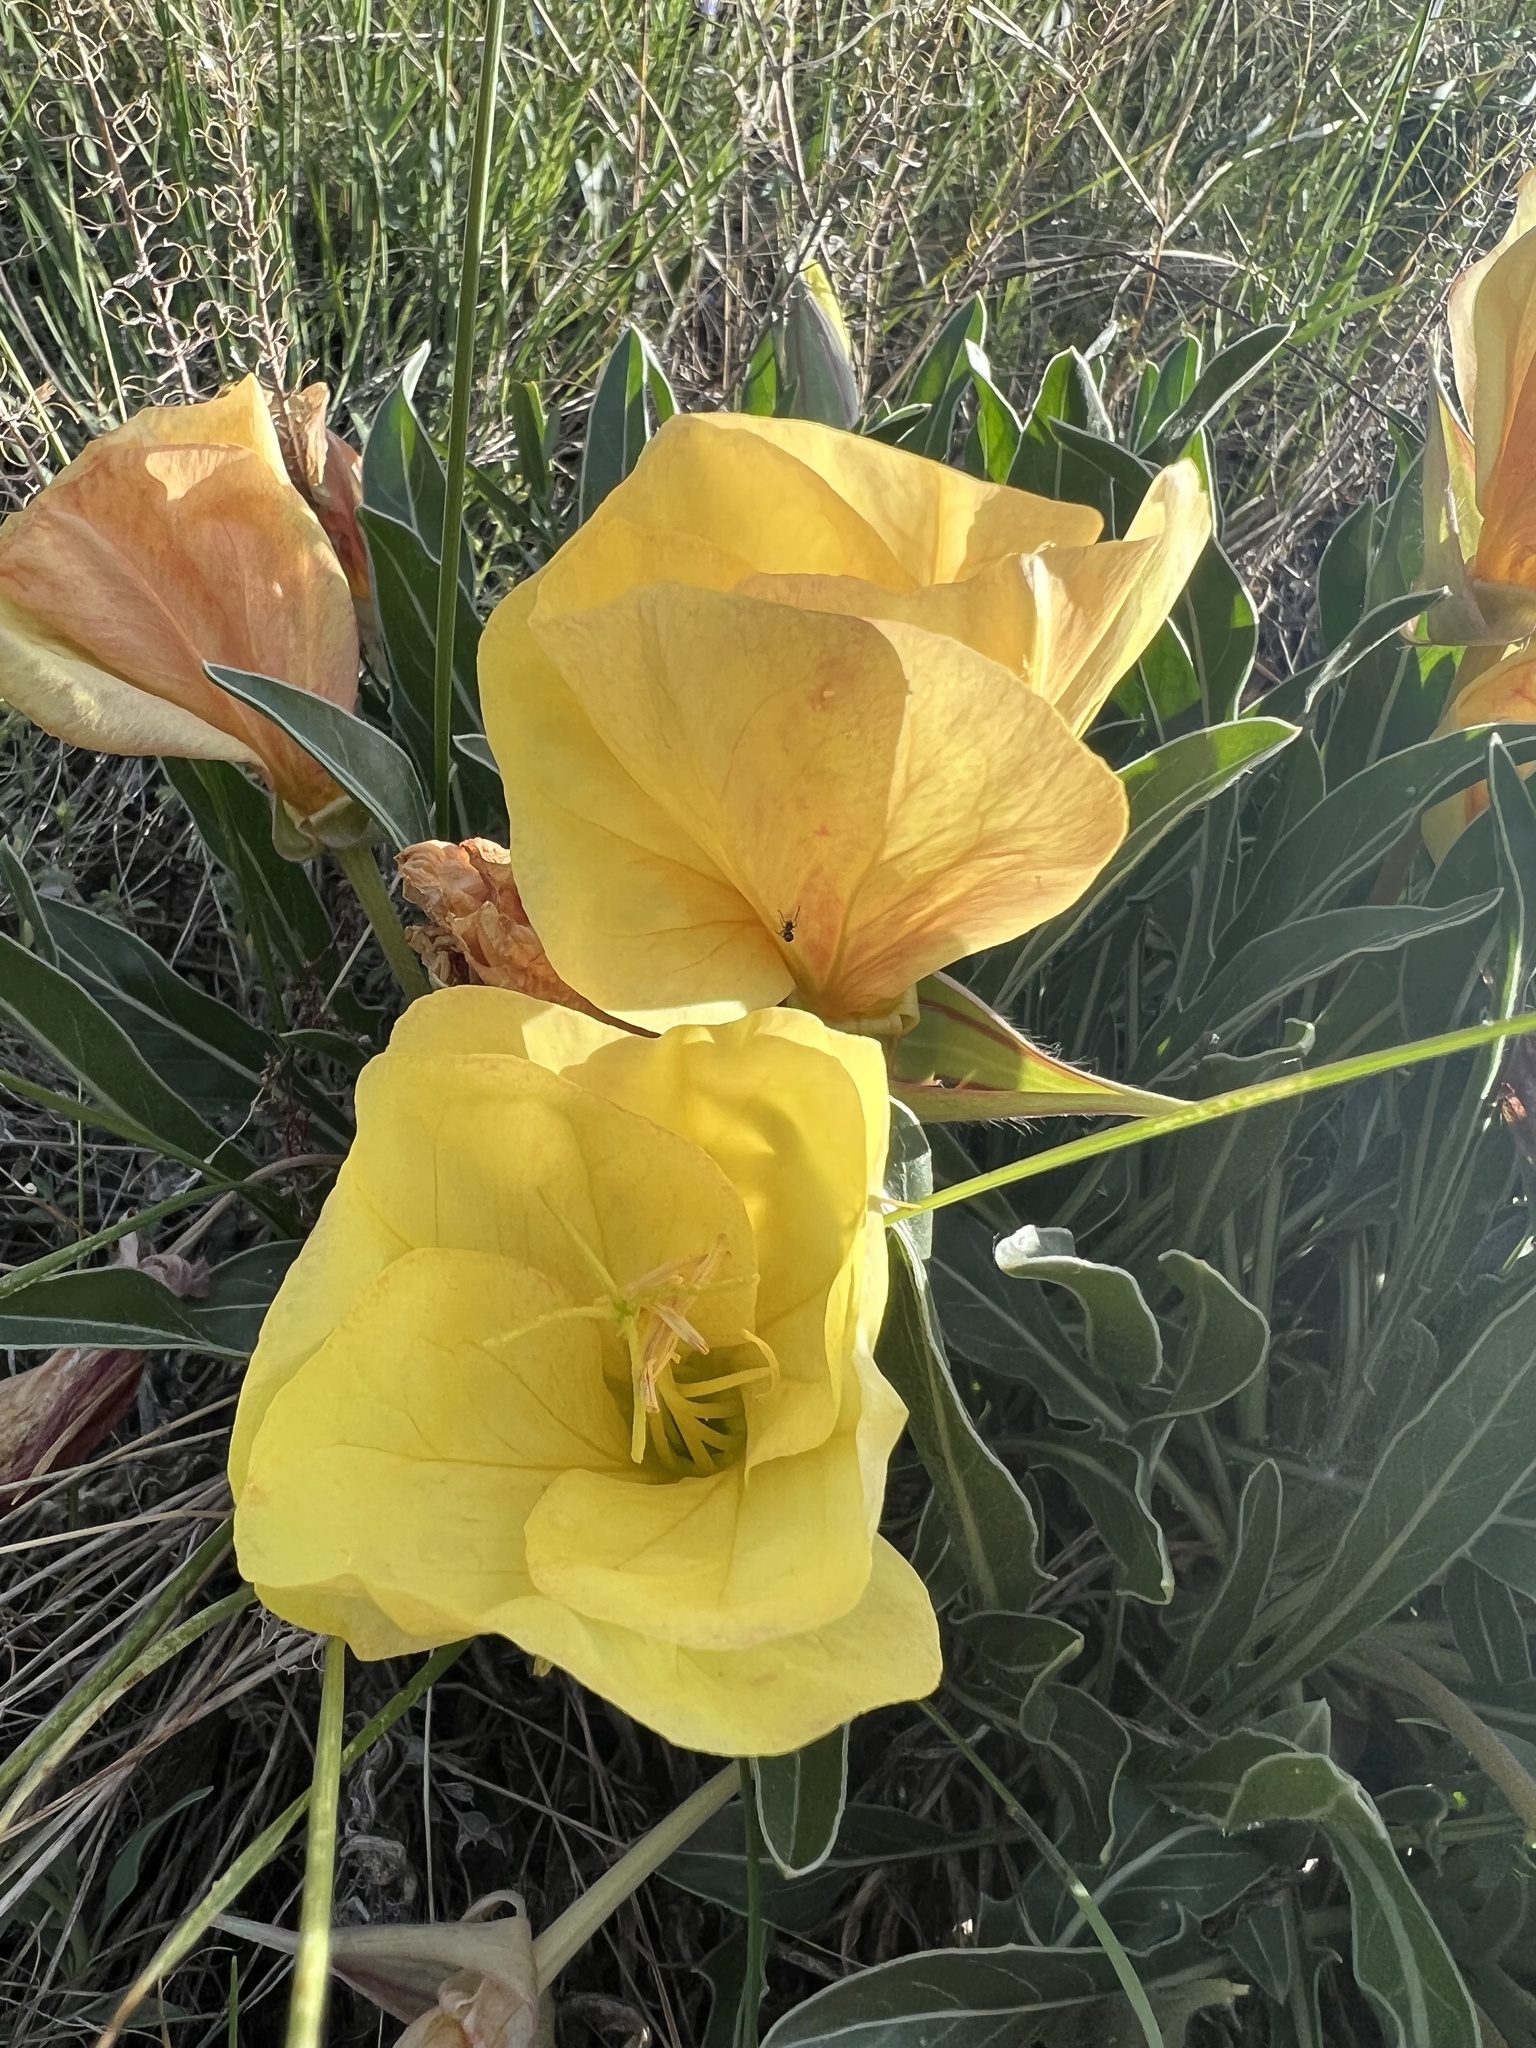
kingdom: Plantae
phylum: Tracheophyta
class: Magnoliopsida
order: Myrtales
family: Onagraceae
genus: Oenothera
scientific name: Oenothera howardii
